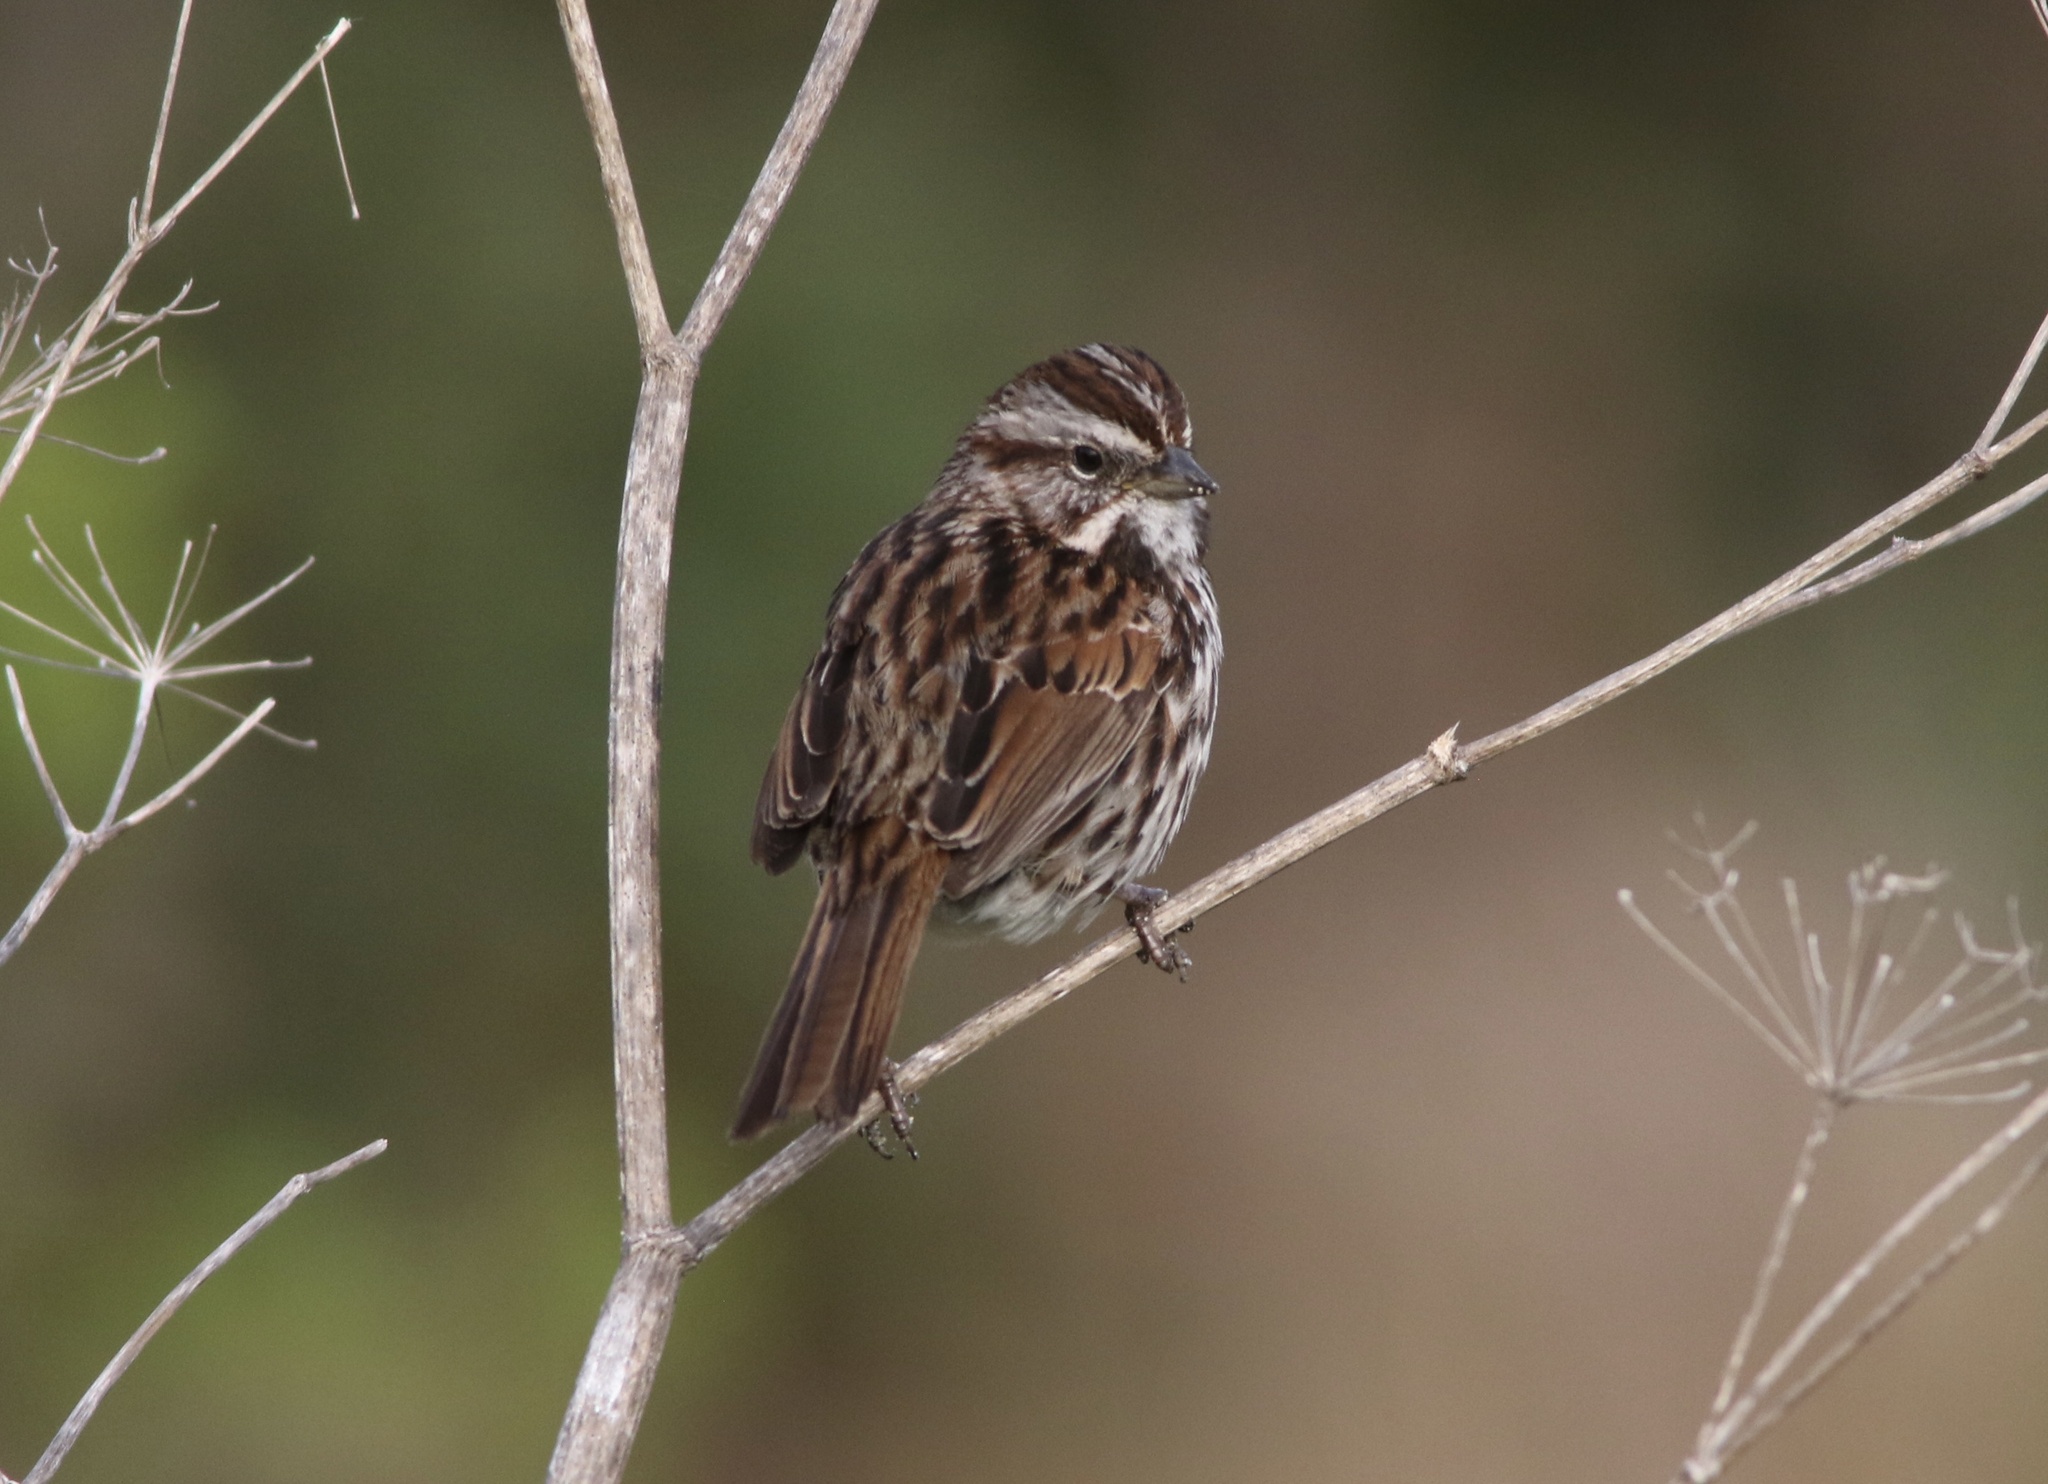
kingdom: Animalia
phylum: Chordata
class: Aves
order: Passeriformes
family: Passerellidae
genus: Melospiza
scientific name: Melospiza melodia
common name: Song sparrow
